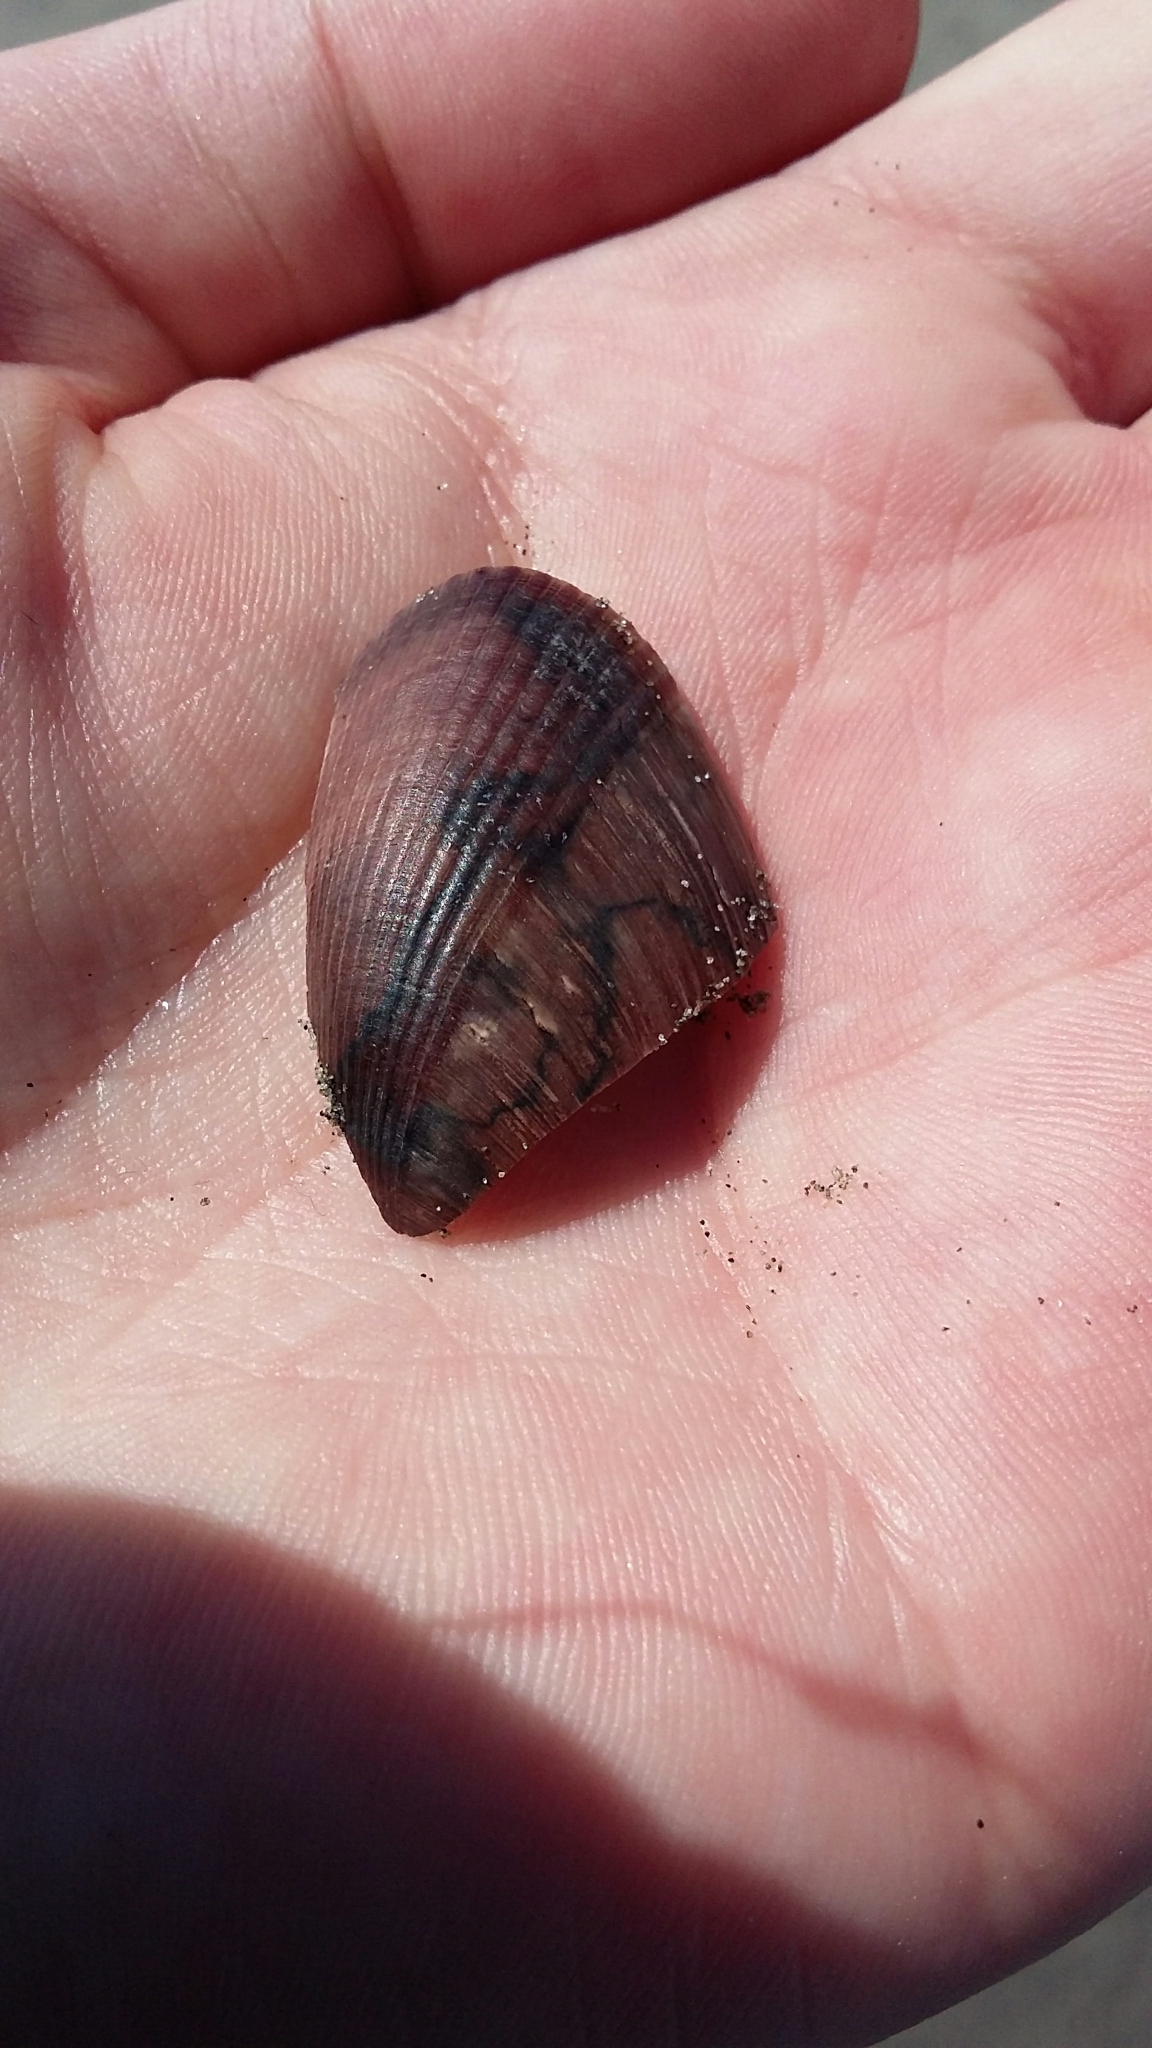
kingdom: Animalia
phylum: Mollusca
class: Bivalvia
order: Mytilida
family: Mytilidae
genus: Musculus
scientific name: Musculus impactus
